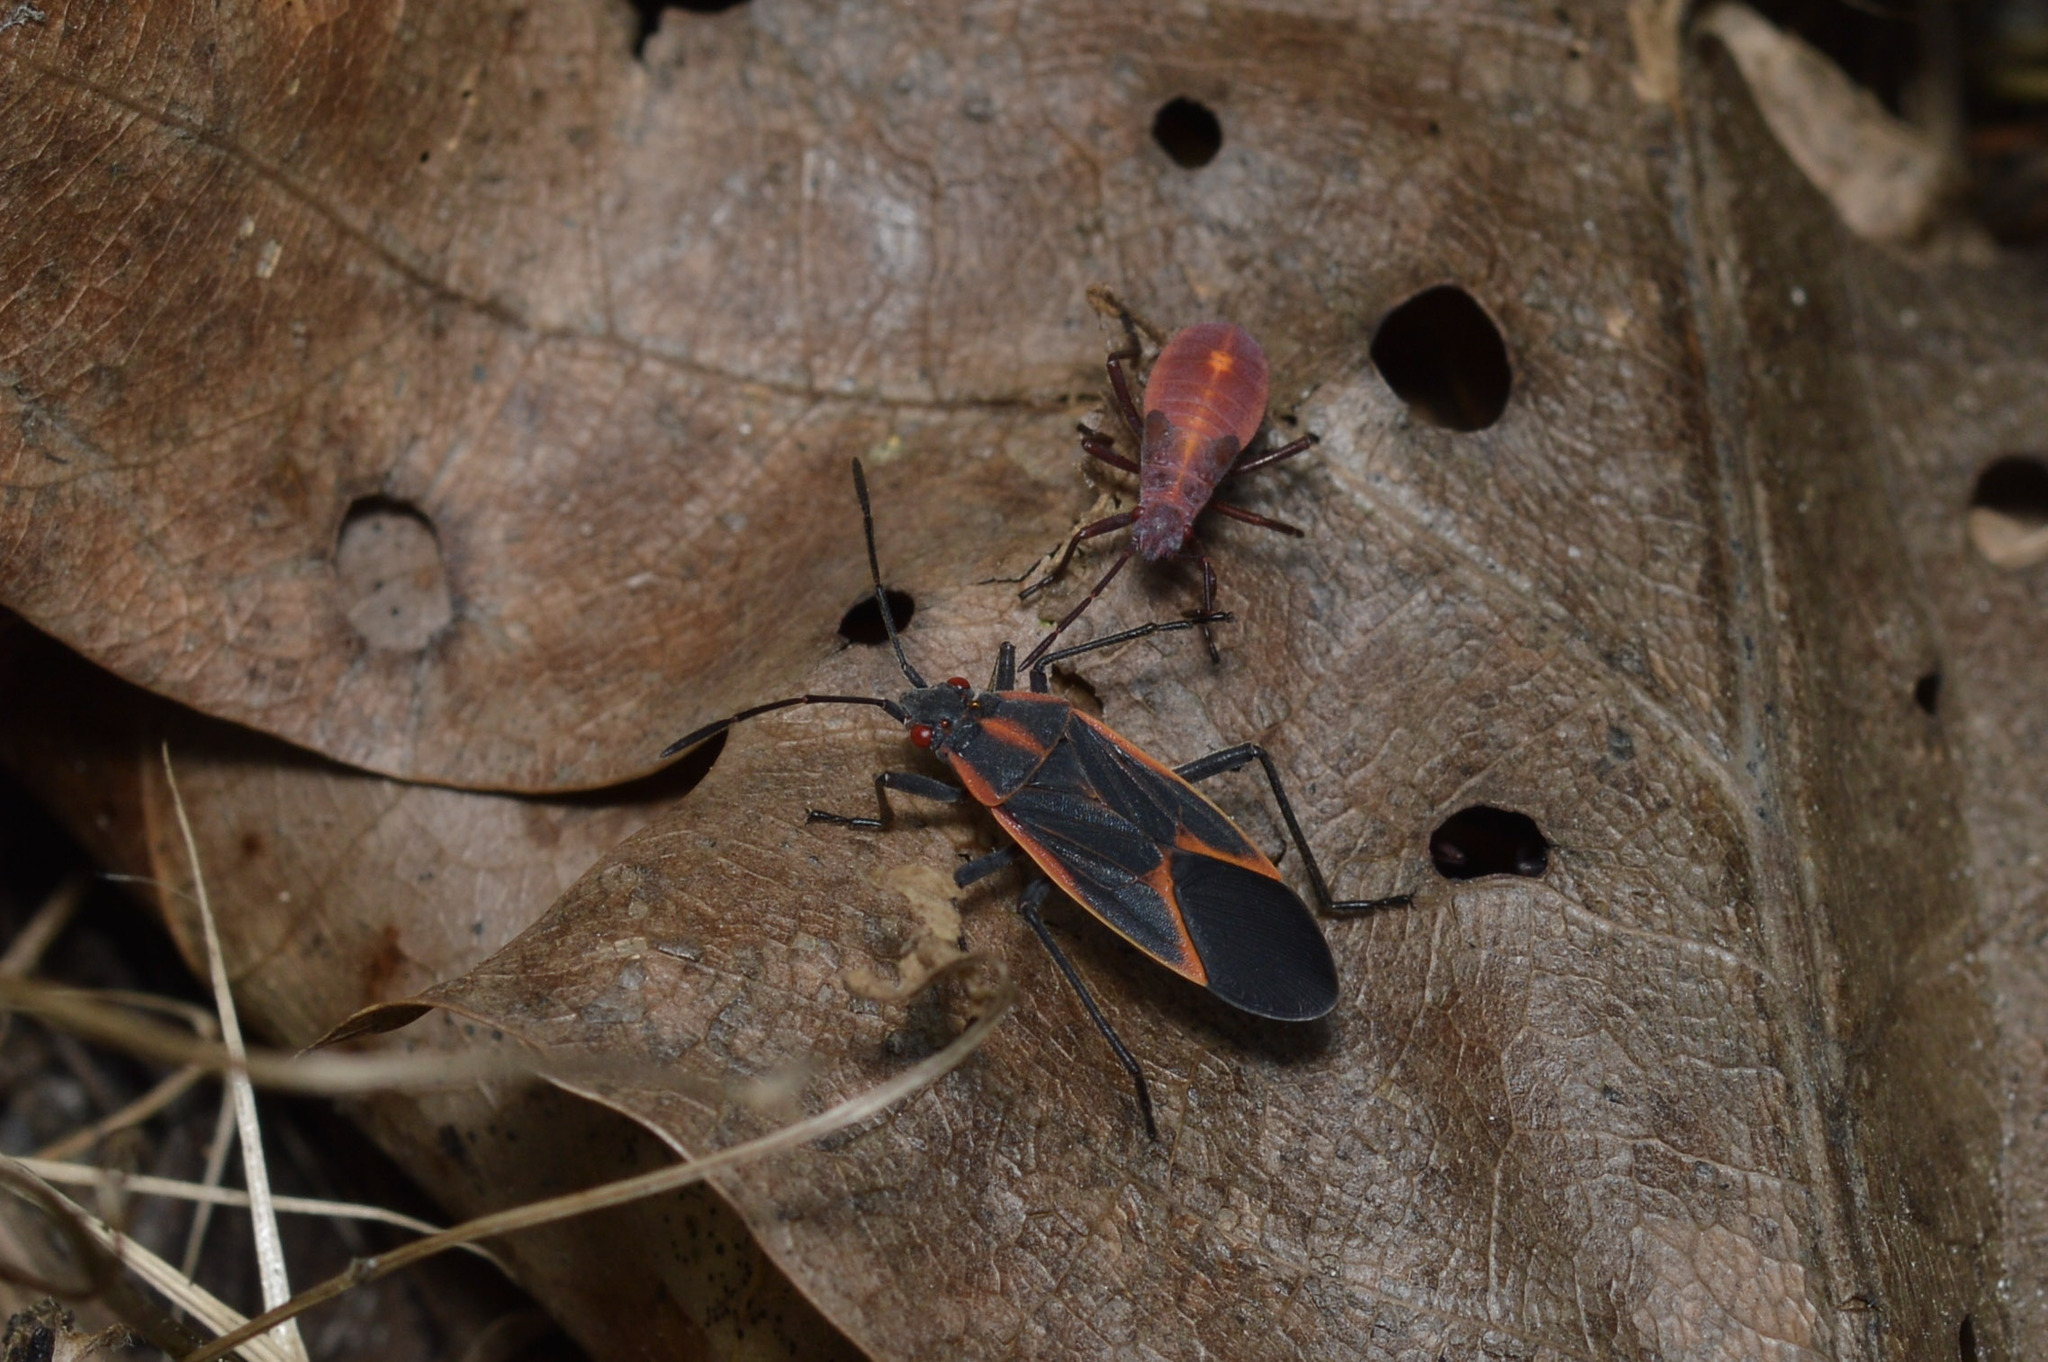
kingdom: Animalia
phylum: Arthropoda
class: Insecta
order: Hemiptera
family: Rhopalidae
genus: Boisea
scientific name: Boisea trivittata
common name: Boxelder bug
